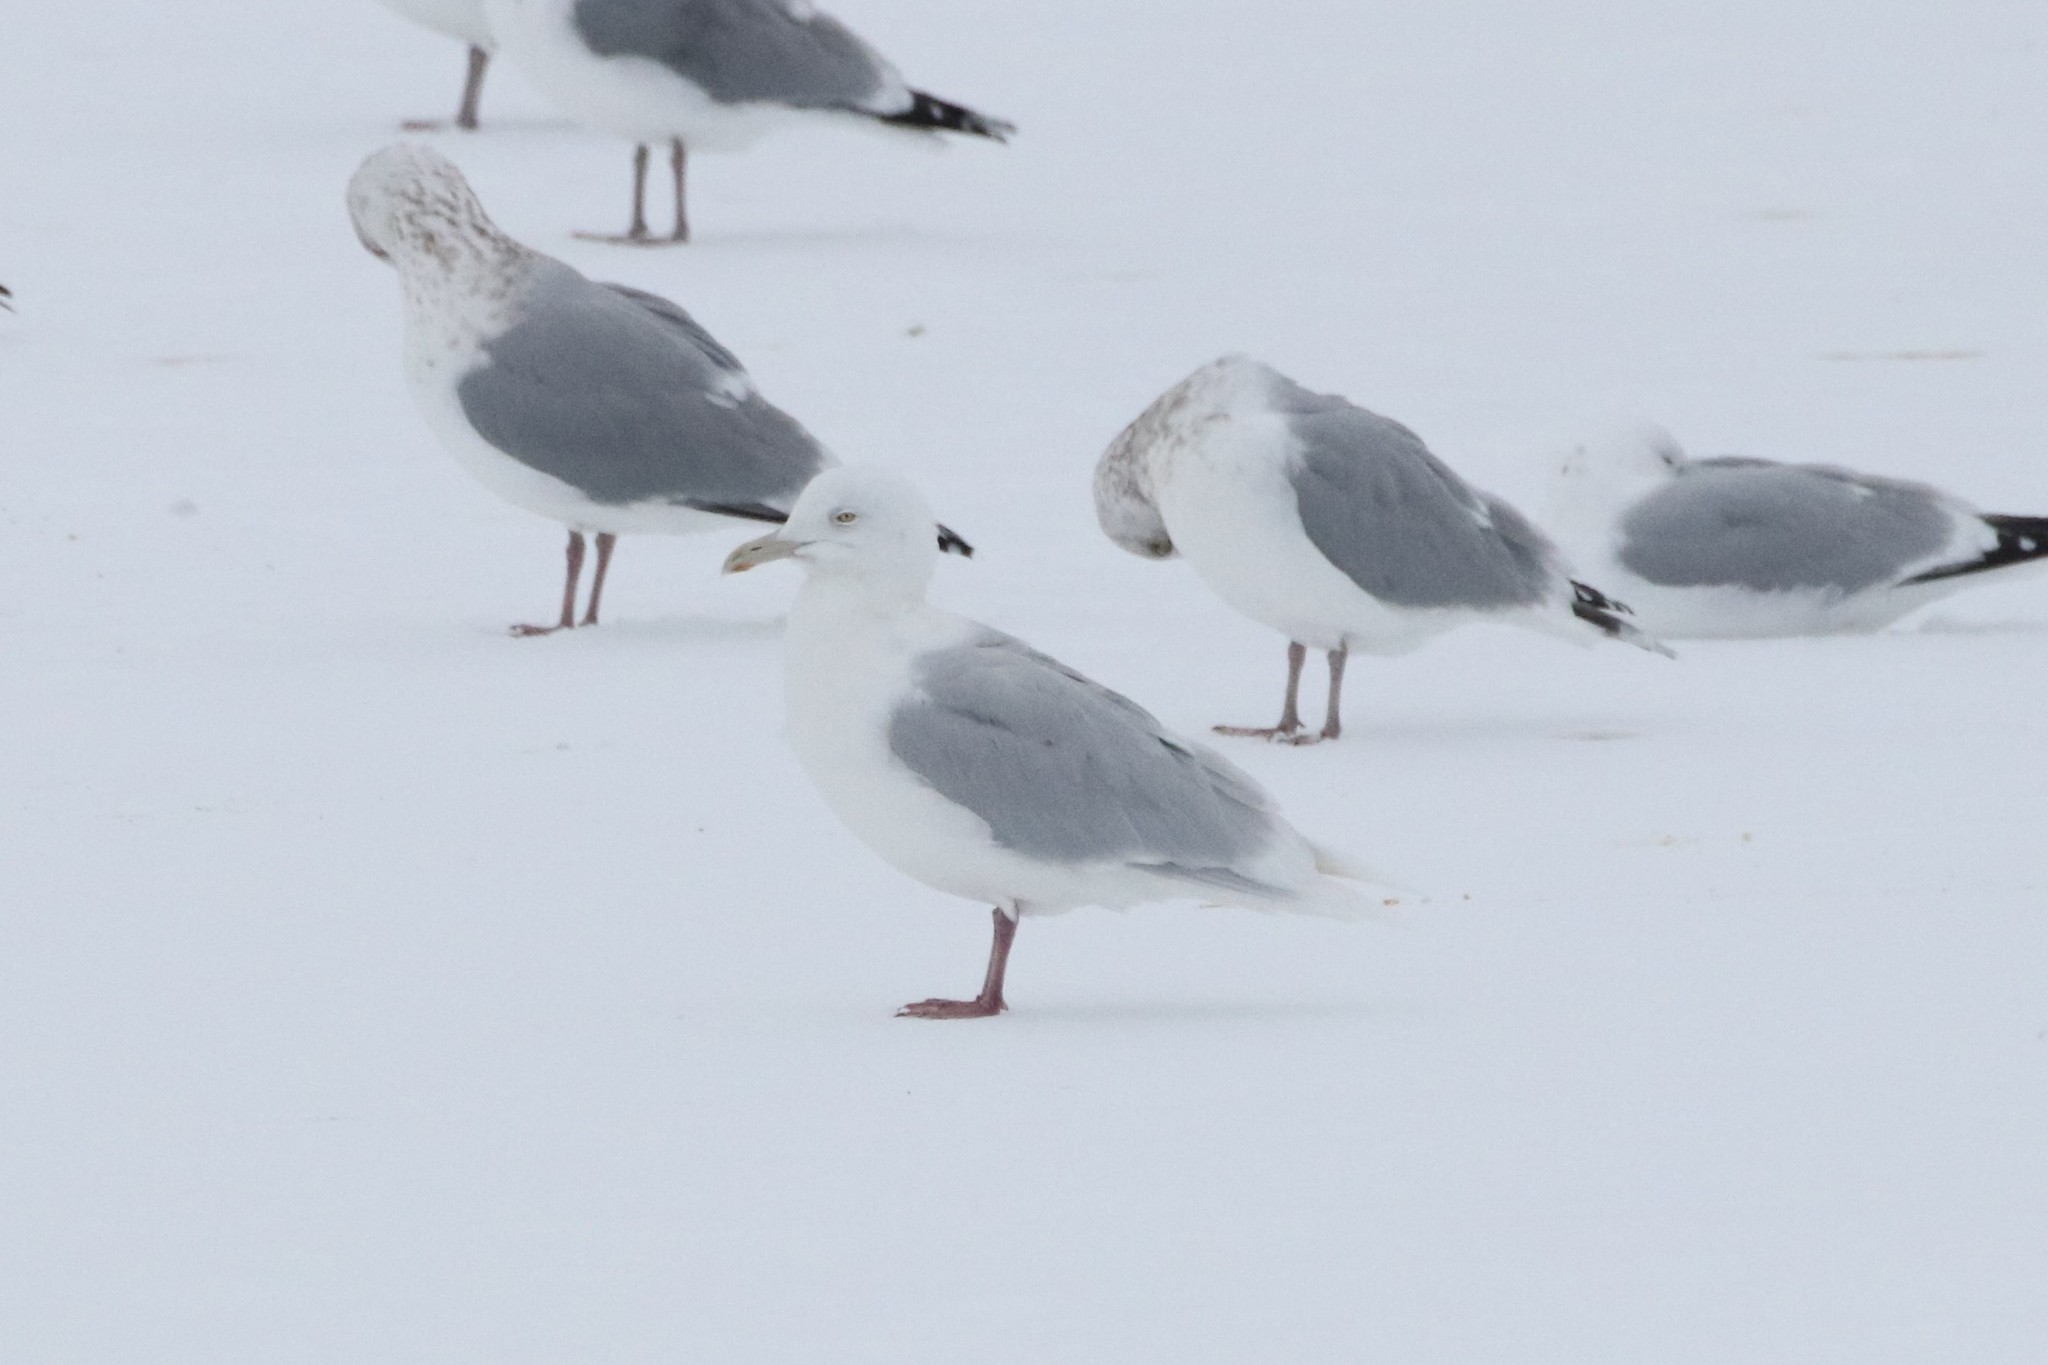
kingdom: Animalia
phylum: Chordata
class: Aves
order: Charadriiformes
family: Laridae
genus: Larus
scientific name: Larus glaucoides
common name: Iceland gull
